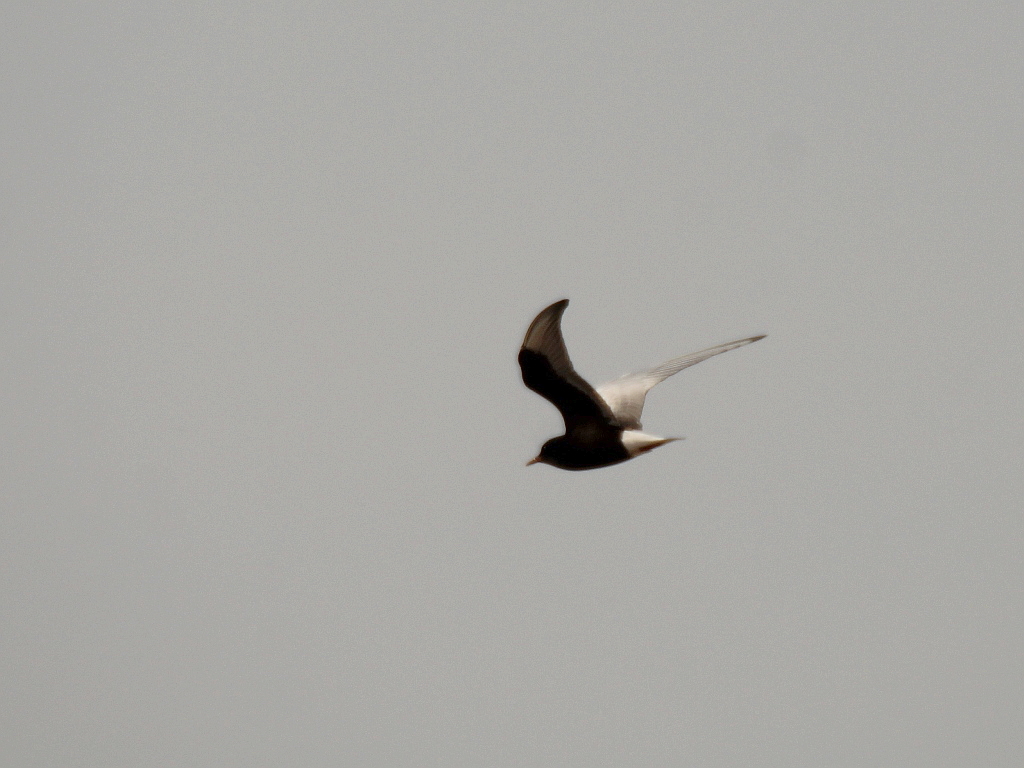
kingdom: Animalia
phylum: Chordata
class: Aves
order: Charadriiformes
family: Laridae
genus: Chlidonias
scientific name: Chlidonias leucopterus
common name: White-winged tern
